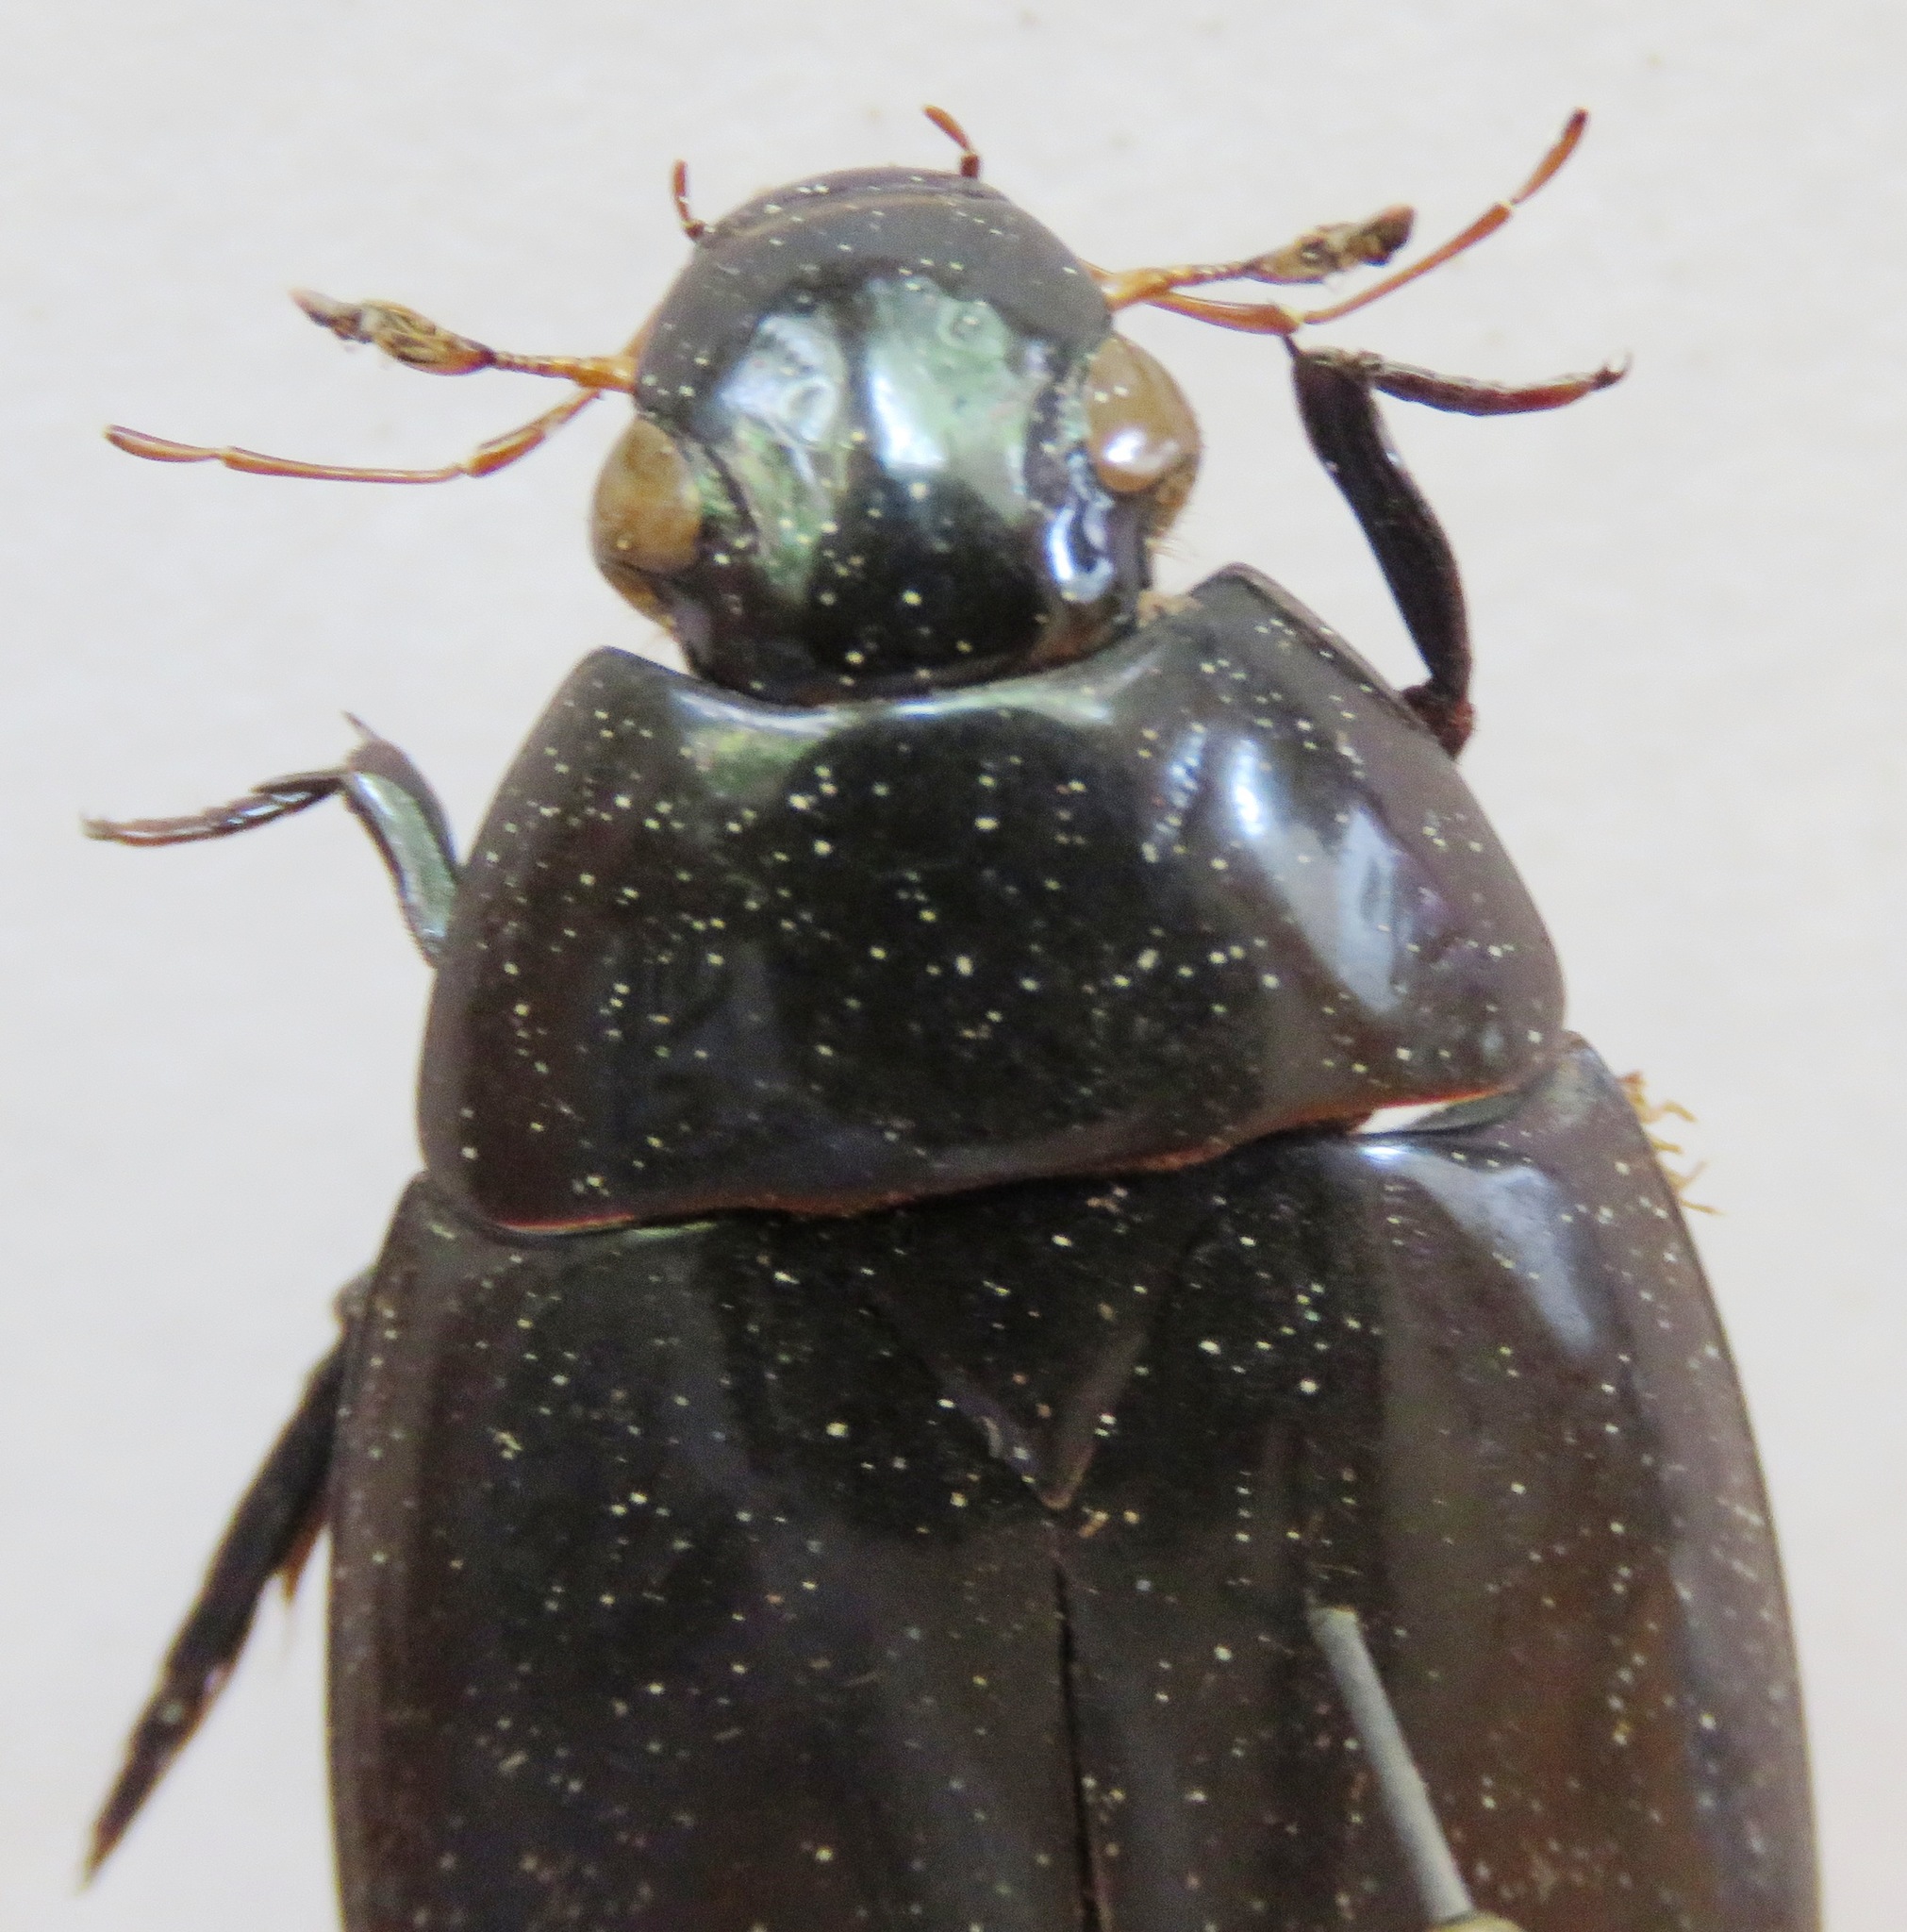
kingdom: Animalia
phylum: Arthropoda
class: Insecta
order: Coleoptera
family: Hydrophilidae
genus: Hydrophilus
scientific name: Hydrophilus ensifer
